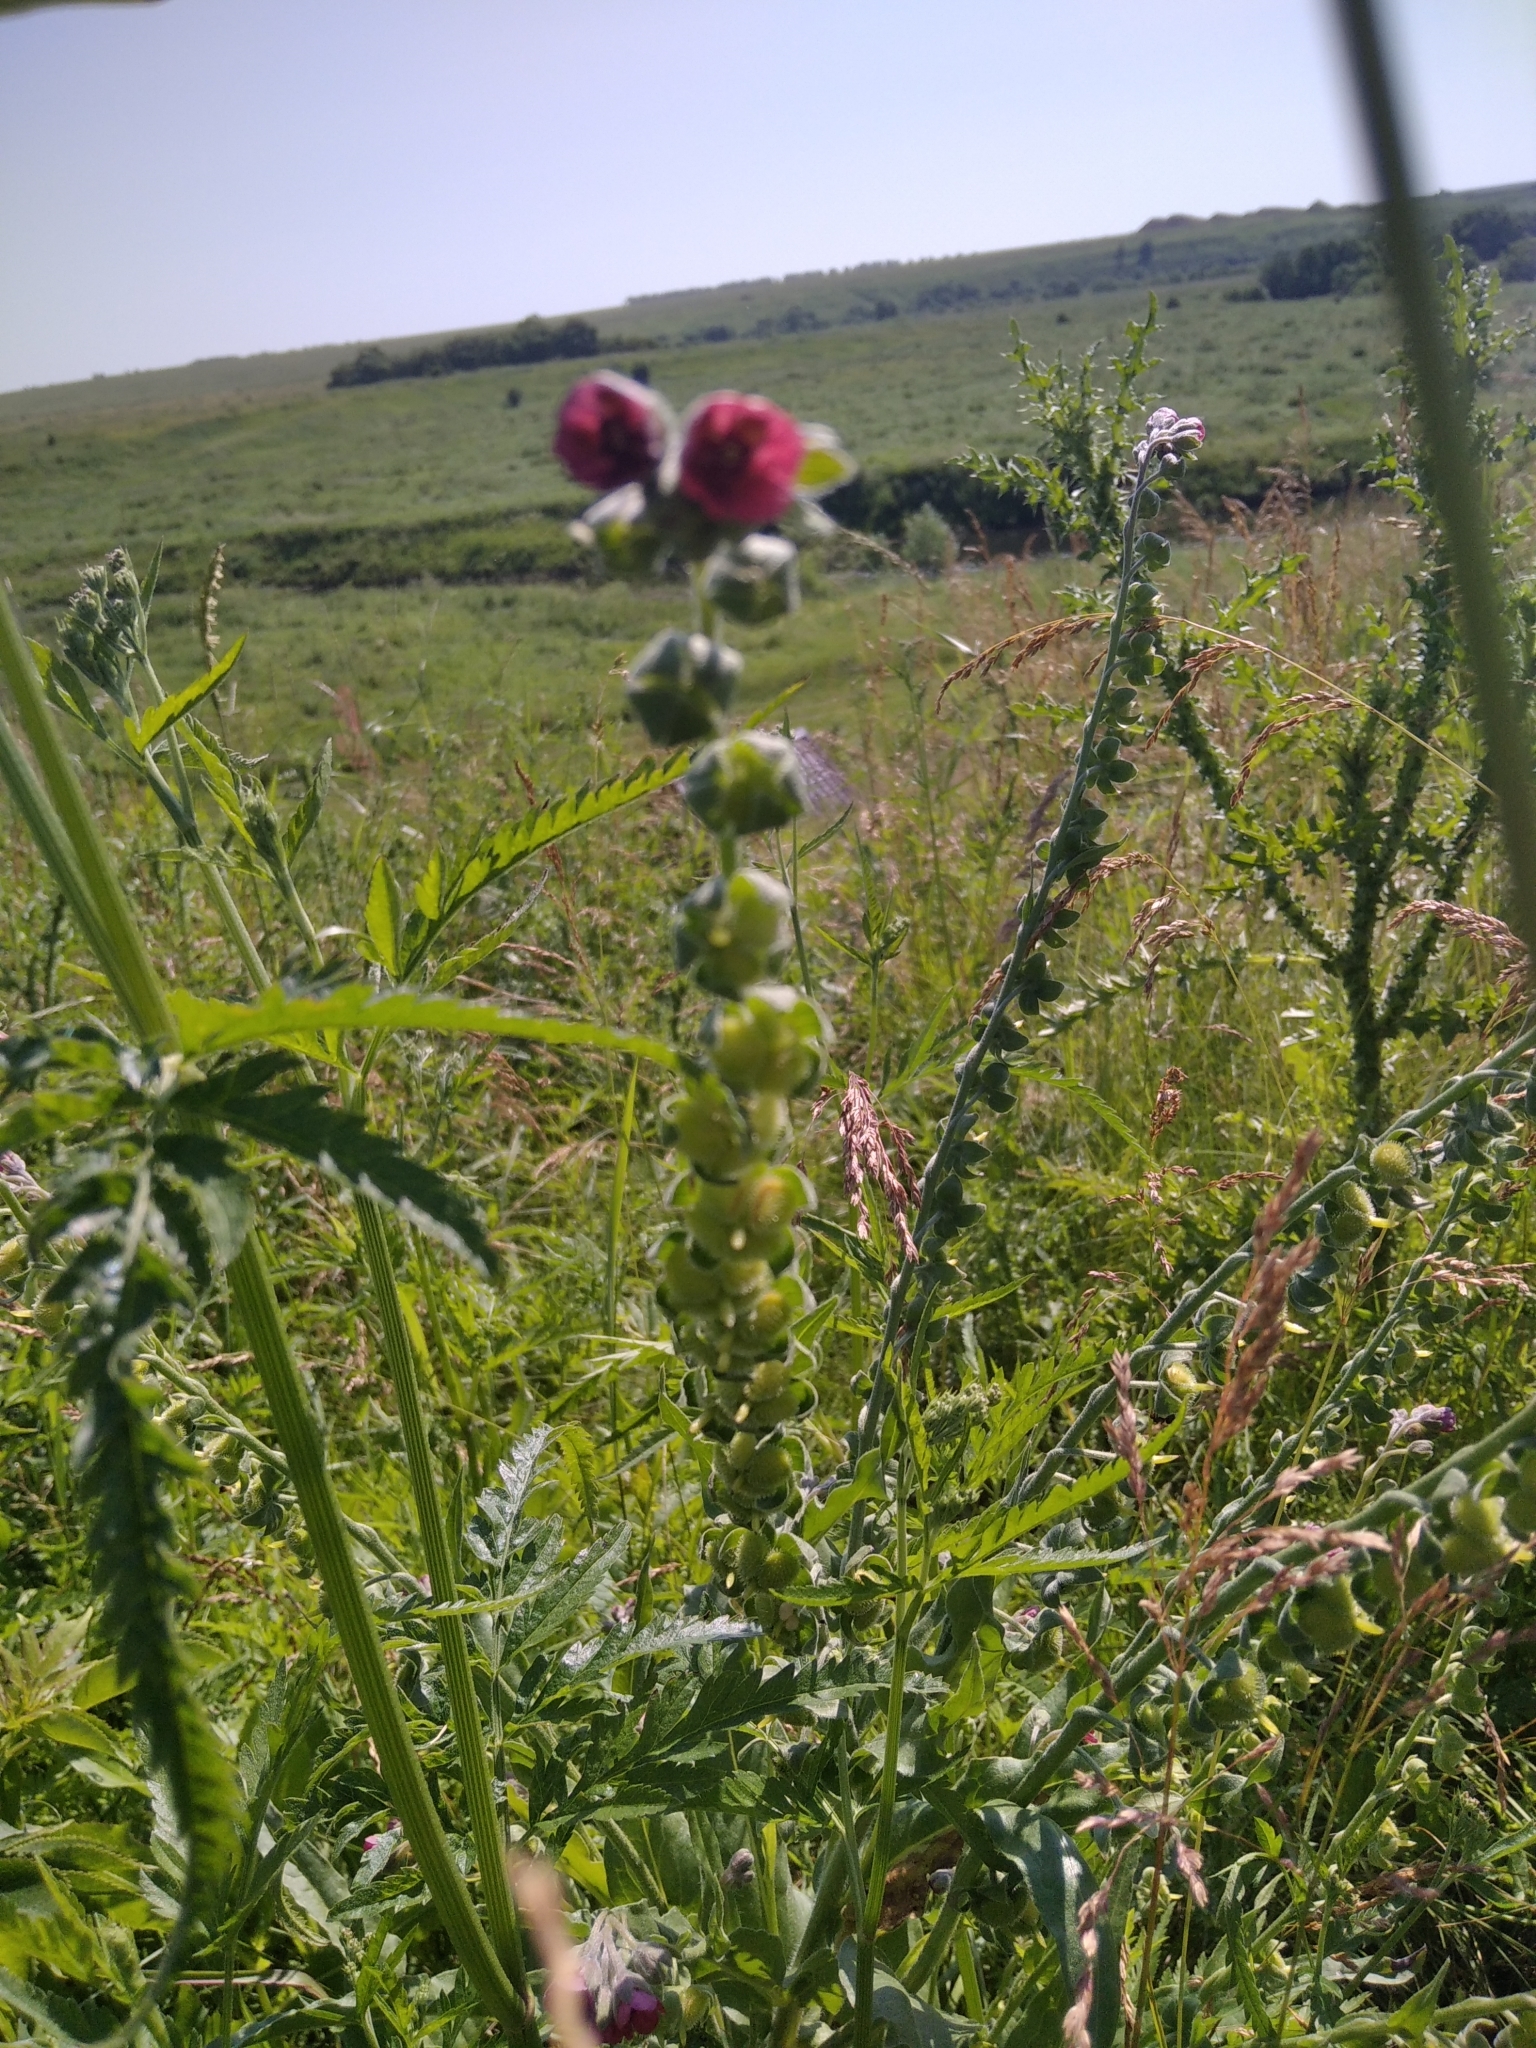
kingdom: Plantae
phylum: Tracheophyta
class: Magnoliopsida
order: Boraginales
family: Boraginaceae
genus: Cynoglossum
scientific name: Cynoglossum officinale
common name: Hound's-tongue
